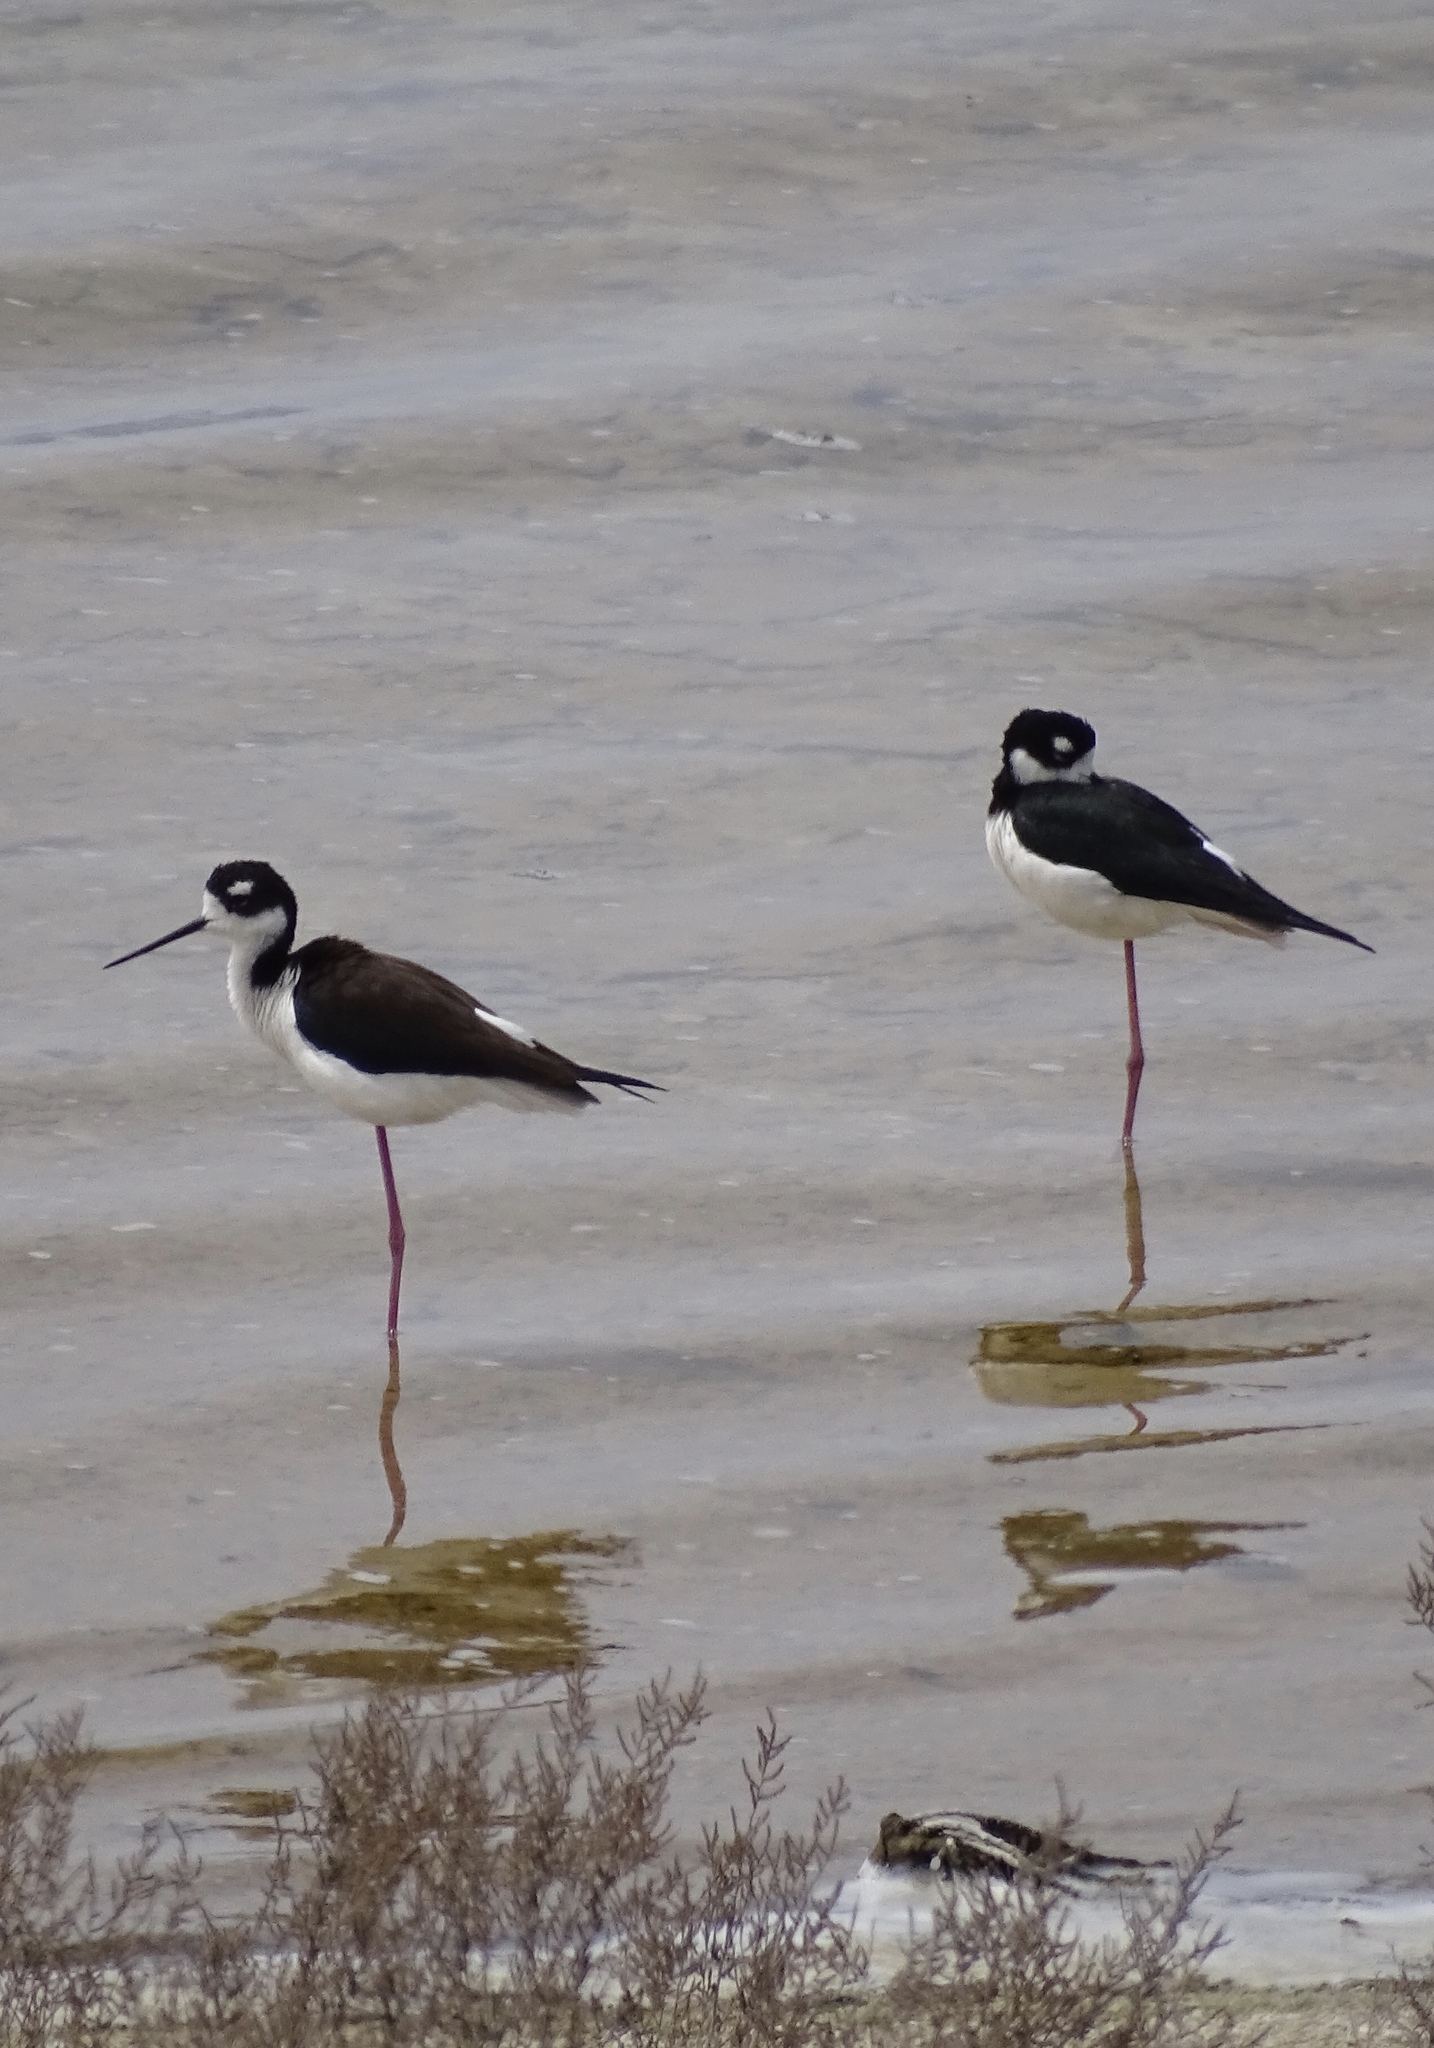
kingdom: Animalia
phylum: Chordata
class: Aves
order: Charadriiformes
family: Recurvirostridae
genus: Himantopus
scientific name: Himantopus mexicanus
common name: Black-necked stilt
